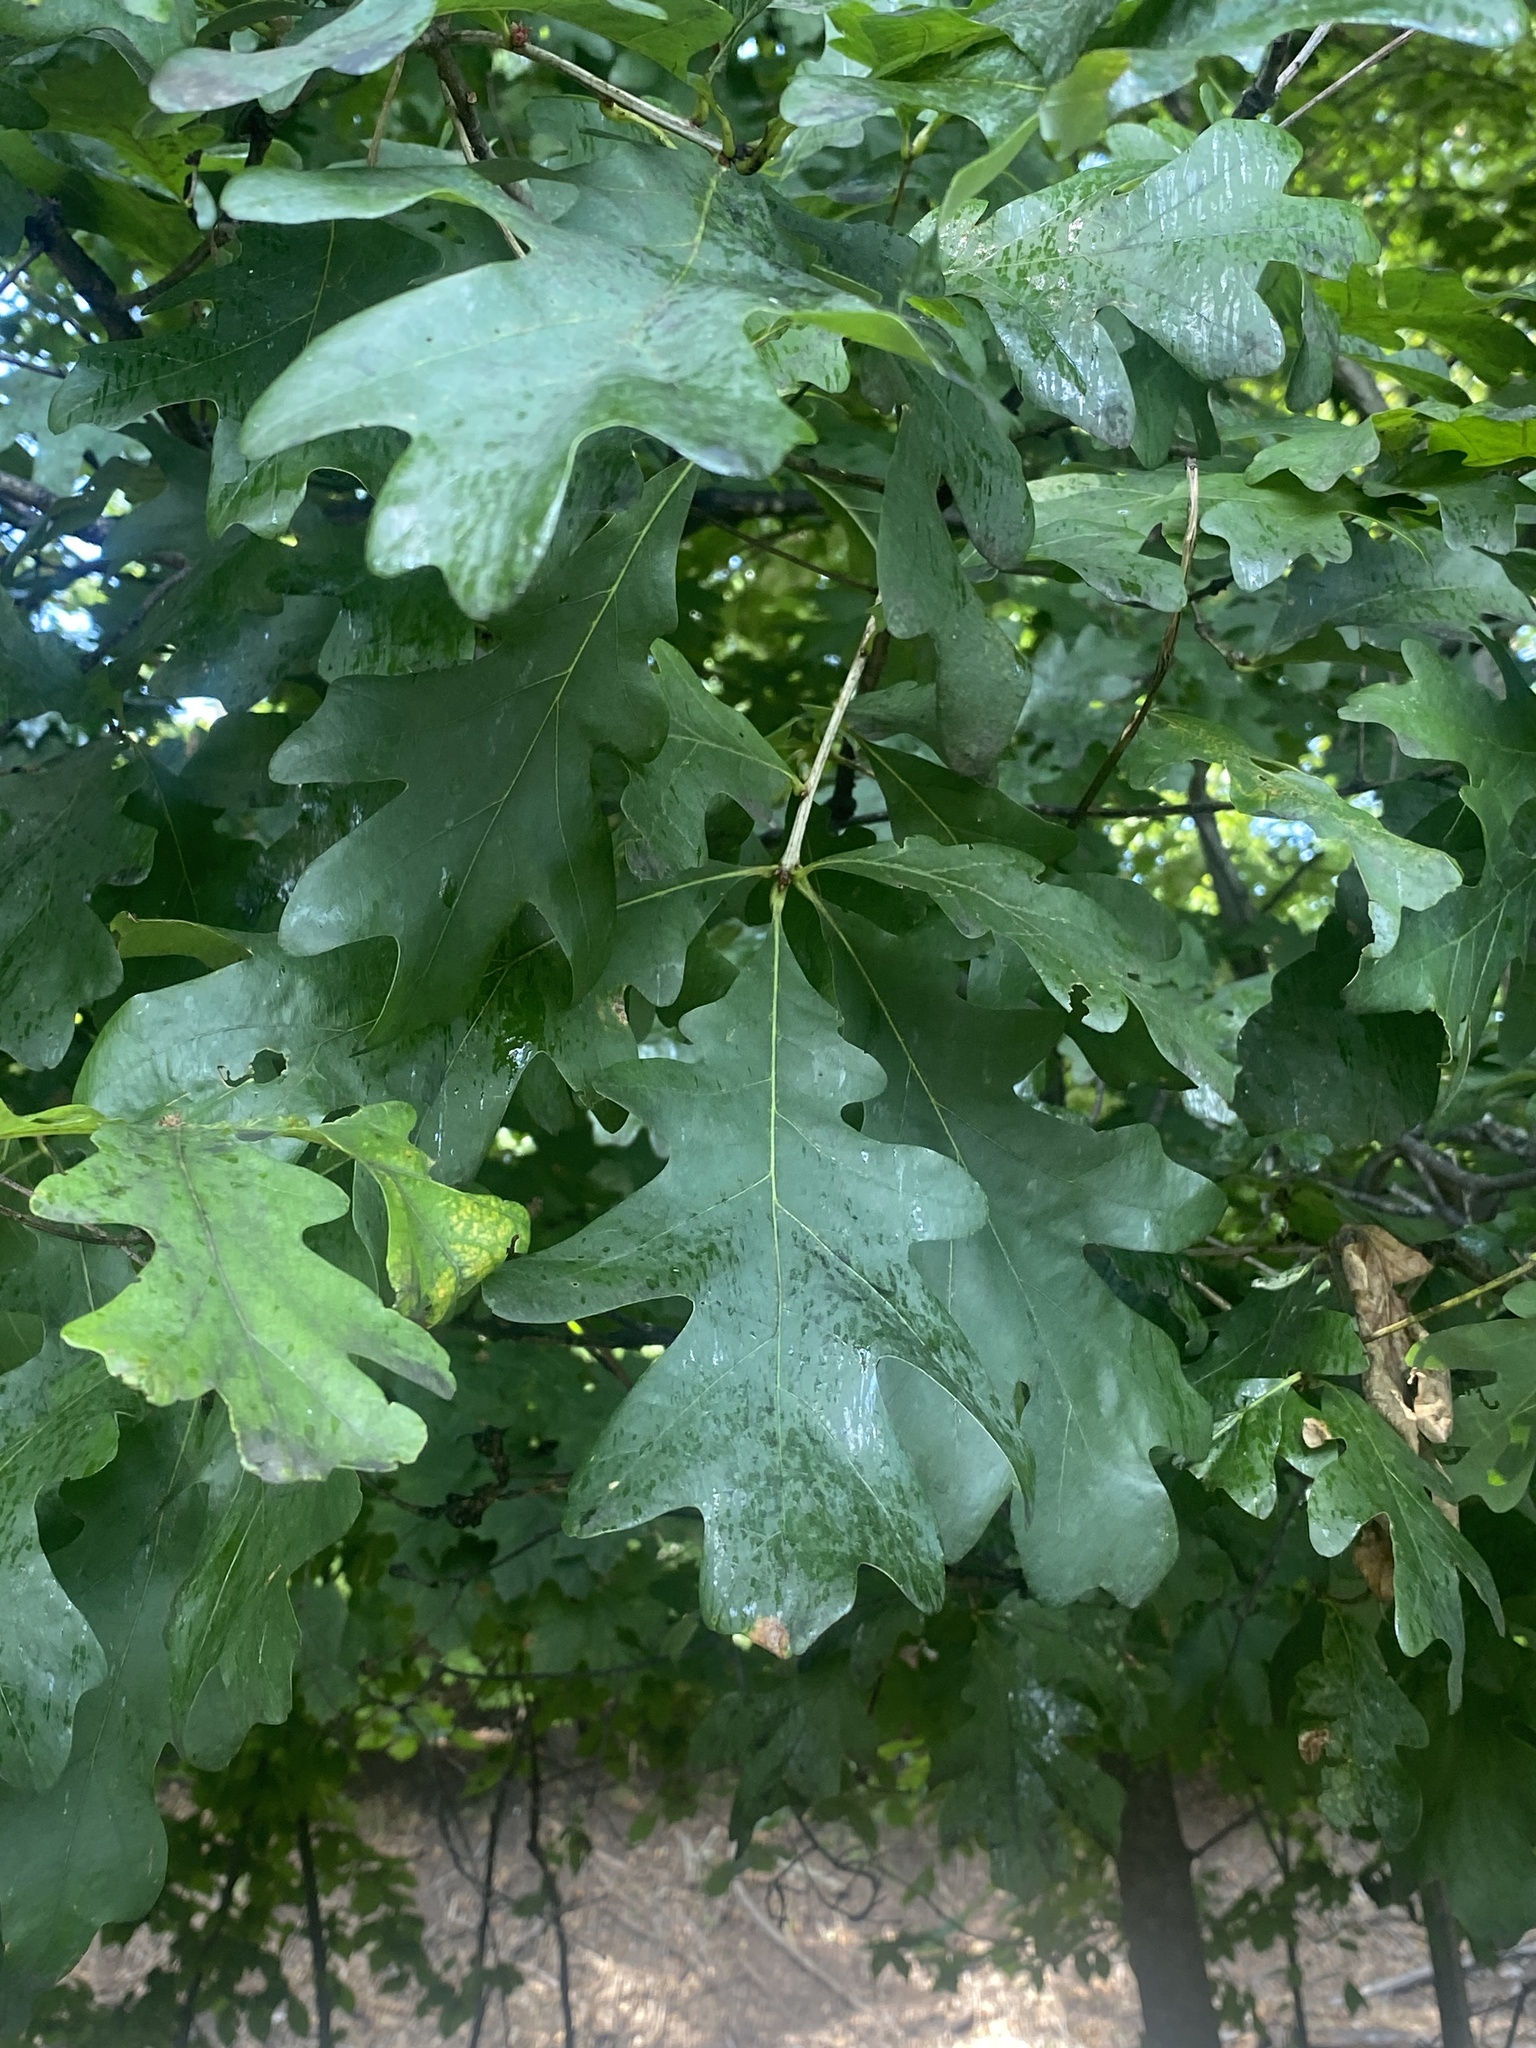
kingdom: Plantae
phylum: Tracheophyta
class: Magnoliopsida
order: Fagales
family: Fagaceae
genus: Quercus
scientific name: Quercus alba
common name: White oak
